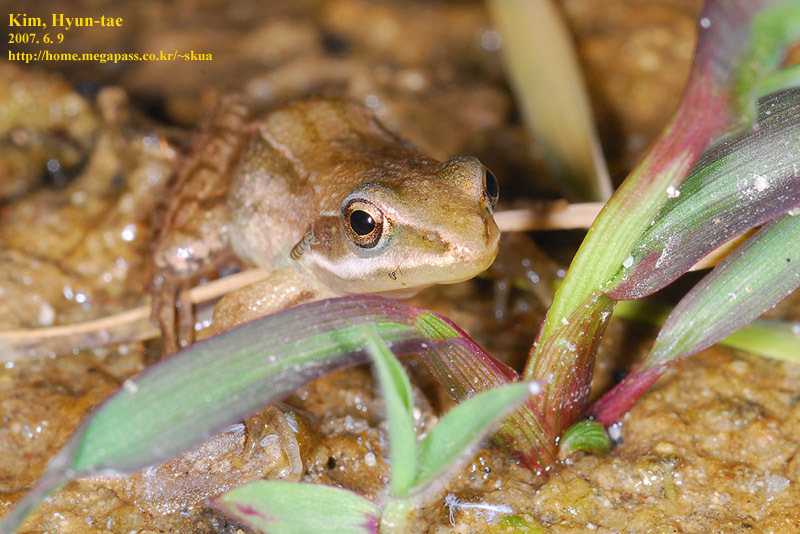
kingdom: Animalia
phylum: Chordata
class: Amphibia
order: Anura
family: Ranidae
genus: Rana
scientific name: Rana coreana
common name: Korean brown frog
